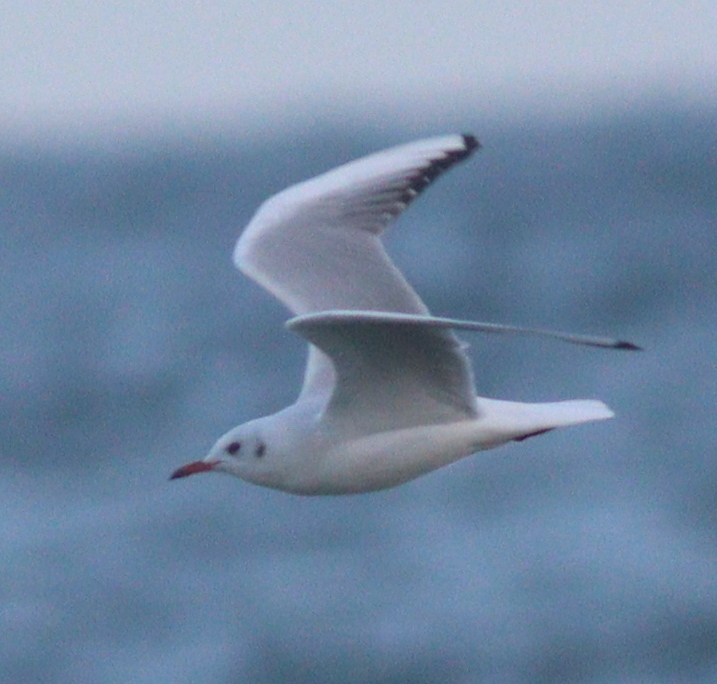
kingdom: Animalia
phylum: Chordata
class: Aves
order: Charadriiformes
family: Laridae
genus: Chroicocephalus
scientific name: Chroicocephalus ridibundus
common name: Black-headed gull
